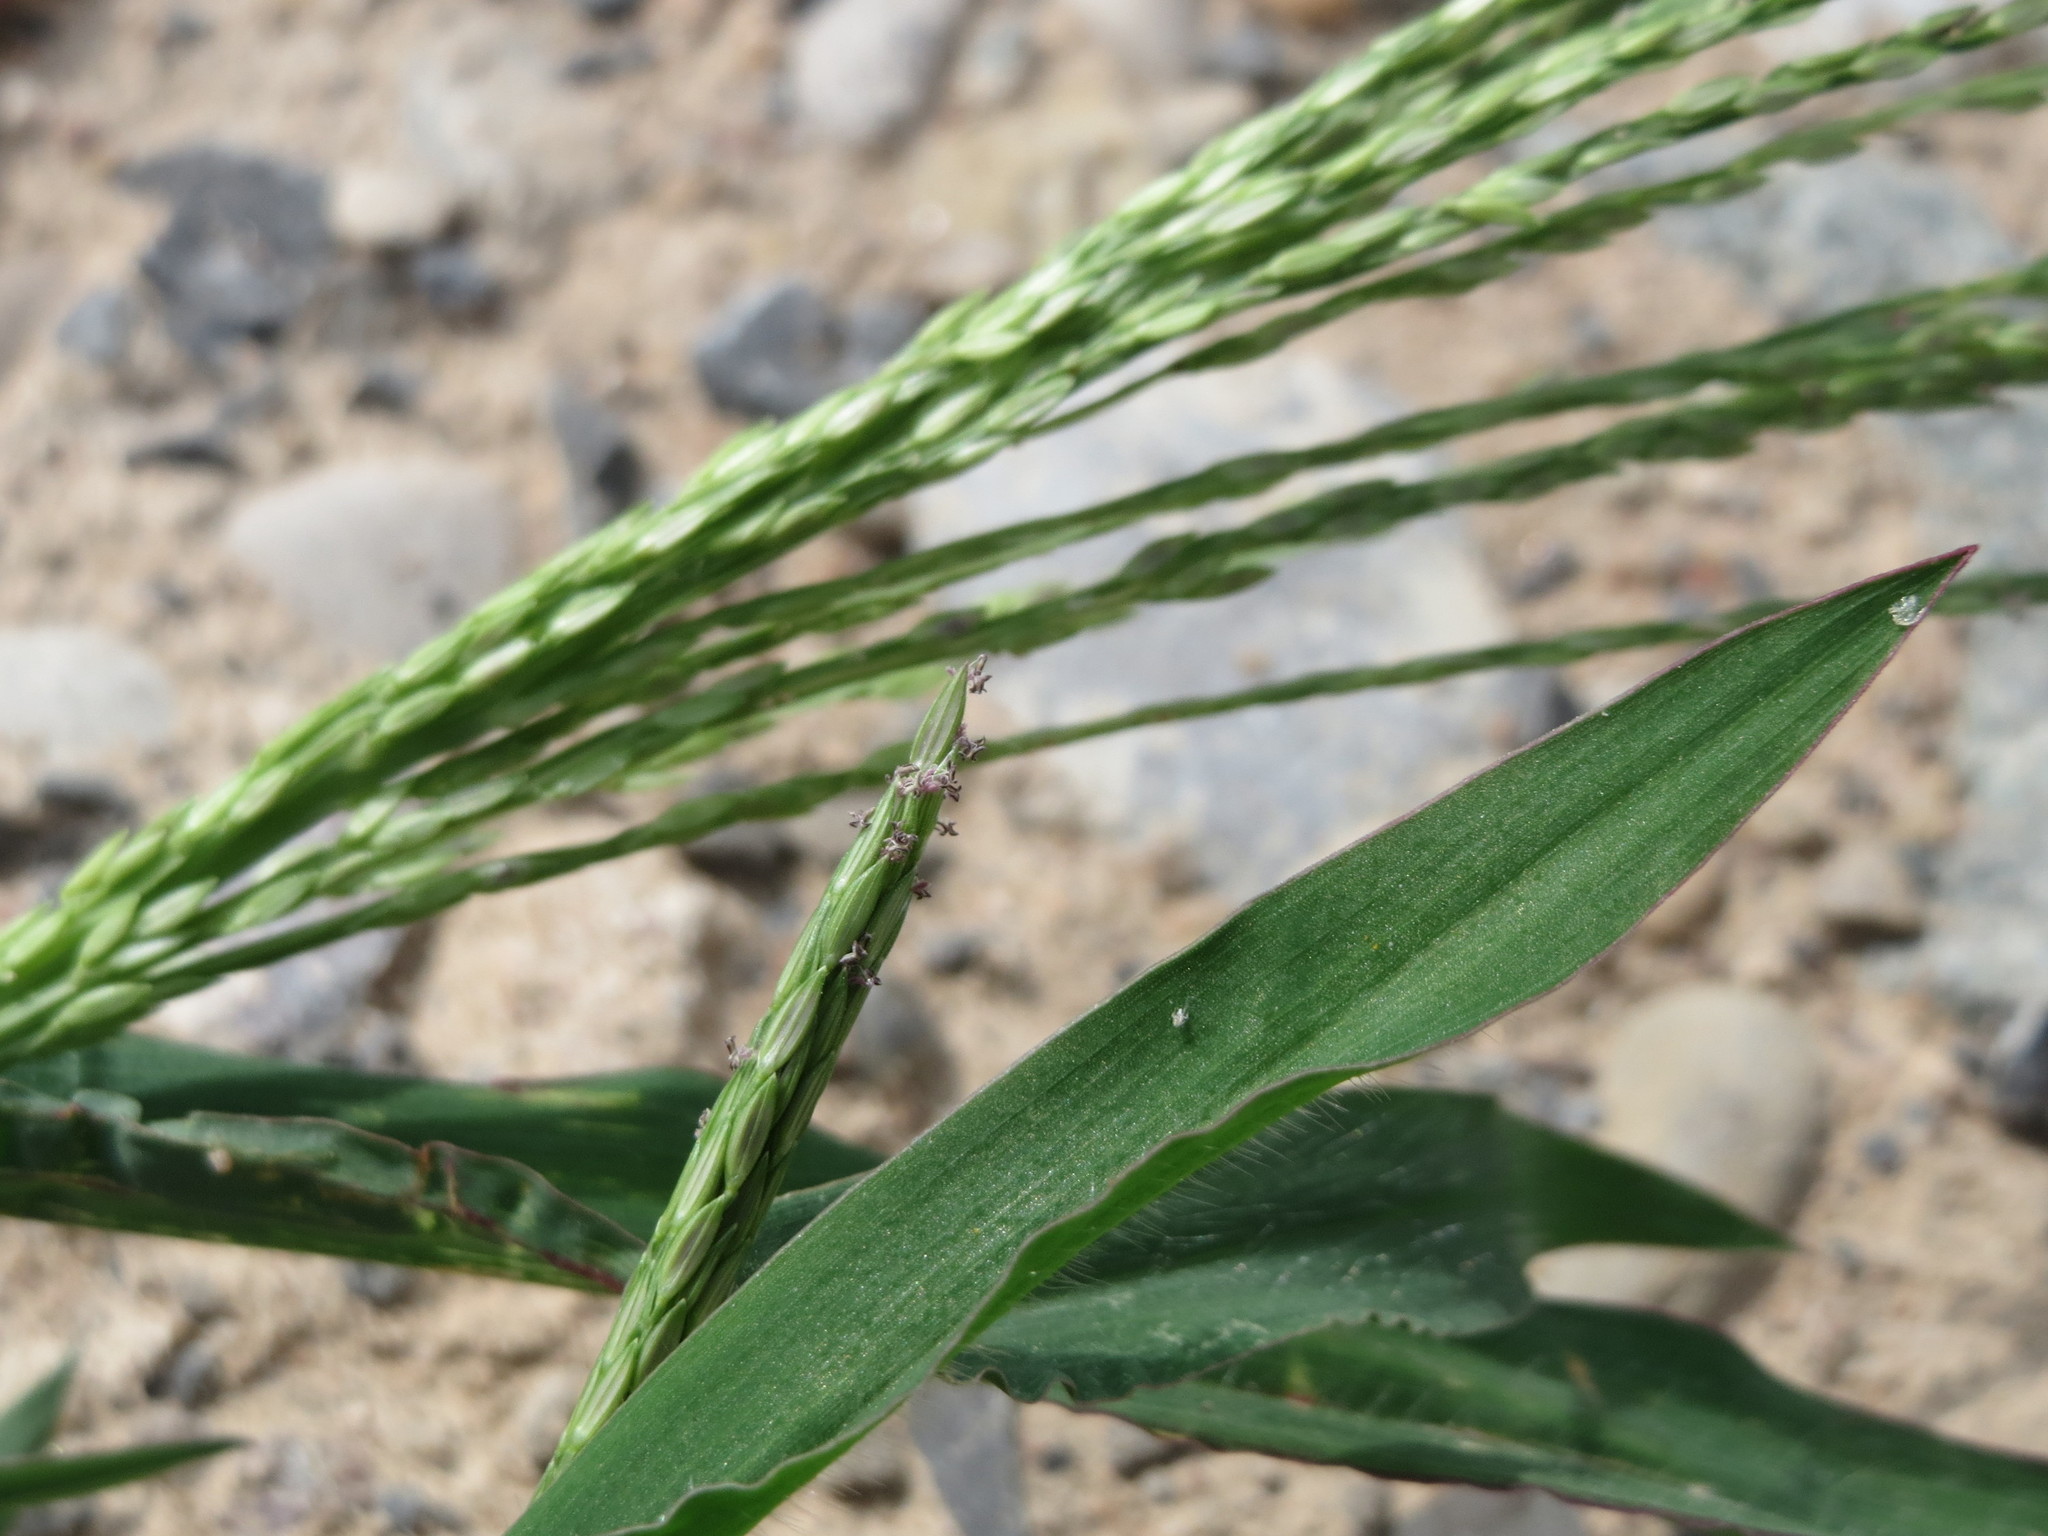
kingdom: Plantae
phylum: Tracheophyta
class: Liliopsida
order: Poales
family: Poaceae
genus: Digitaria
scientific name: Digitaria sanguinalis
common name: Hairy crabgrass
